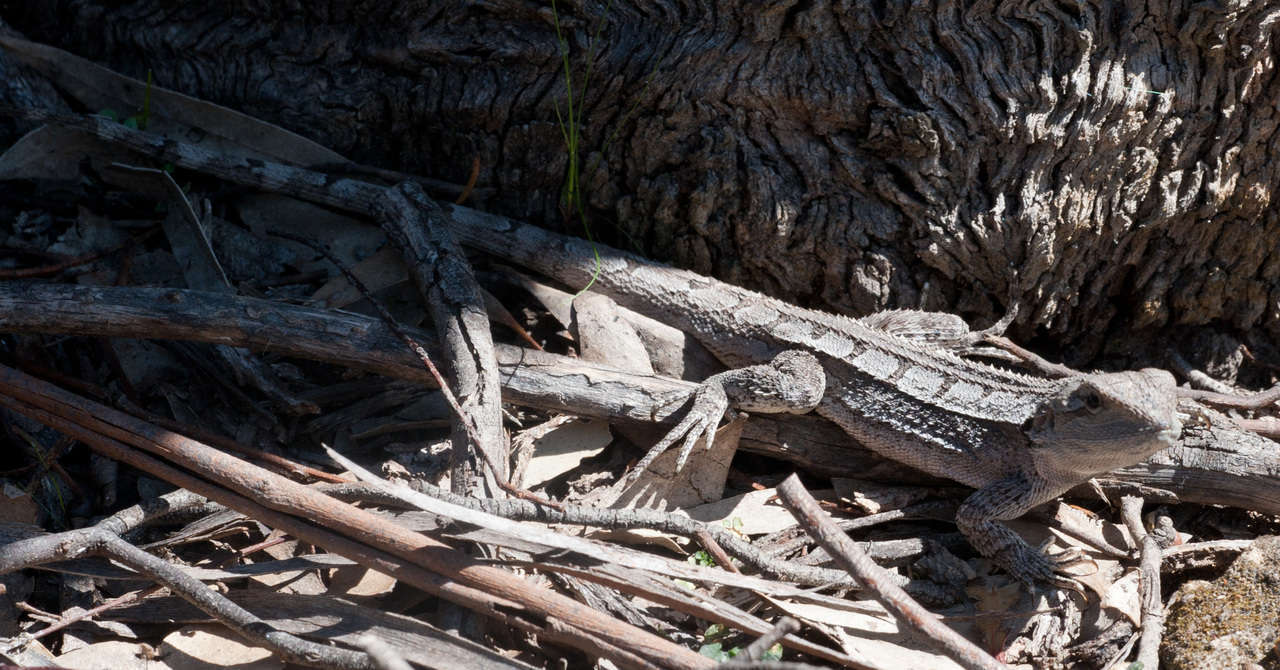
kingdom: Animalia
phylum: Chordata
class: Squamata
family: Agamidae
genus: Amphibolurus
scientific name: Amphibolurus muricatus
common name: Jacky lizard
